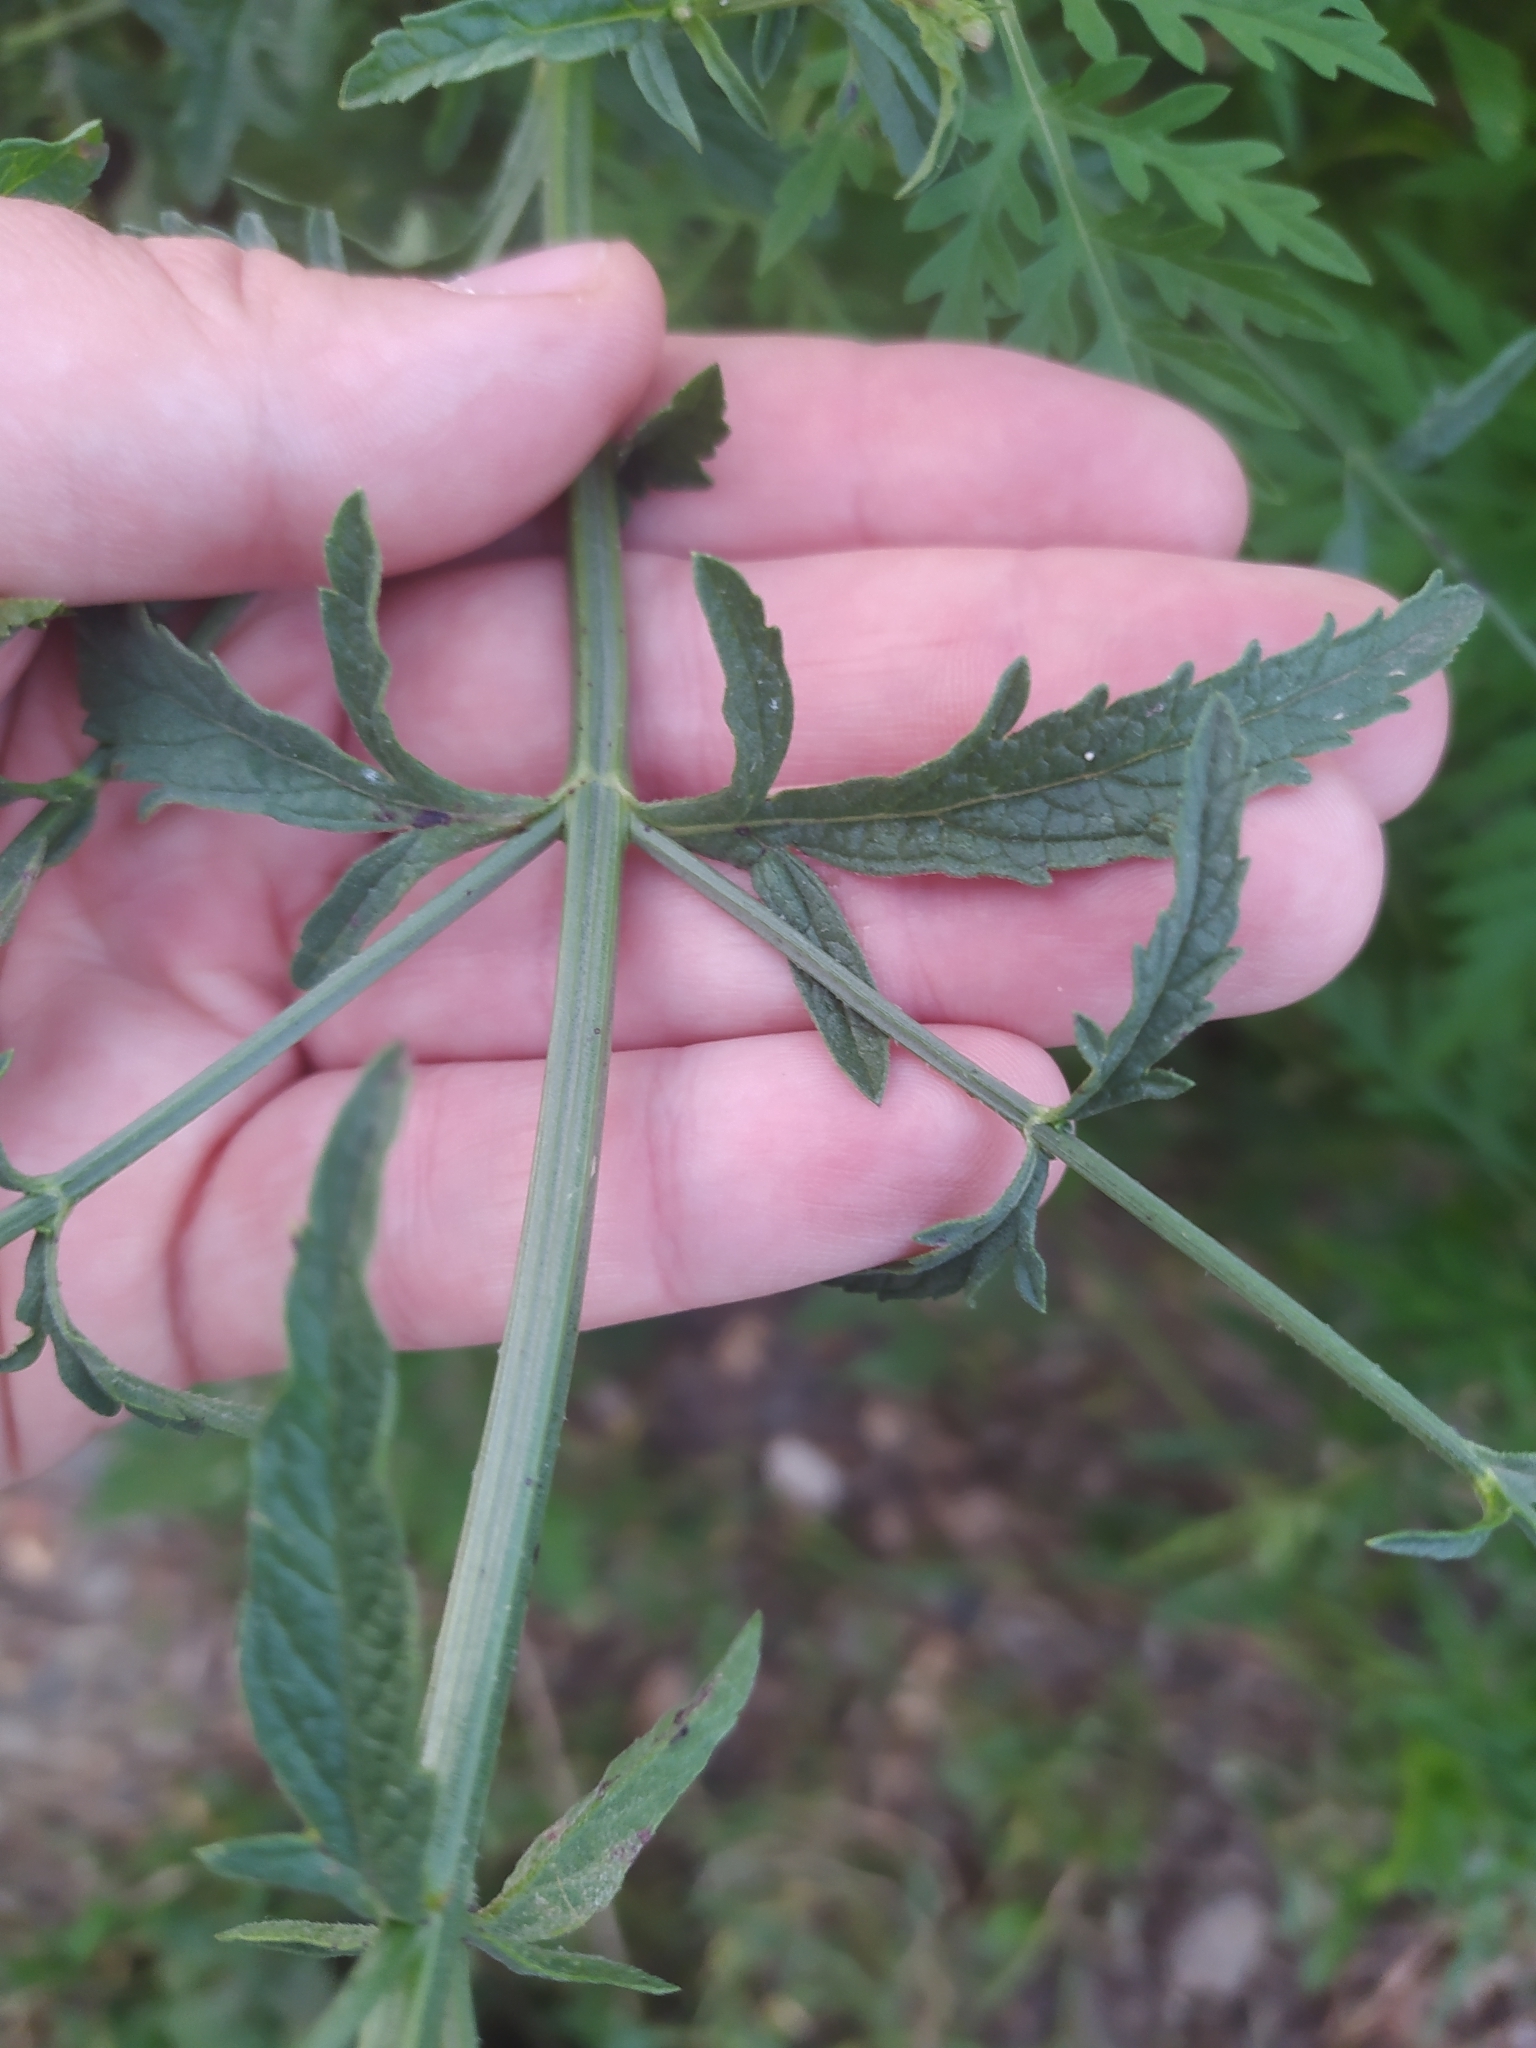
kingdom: Plantae
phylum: Tracheophyta
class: Magnoliopsida
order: Lamiales
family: Verbenaceae
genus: Verbena
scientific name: Verbena officinalis
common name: Vervain
